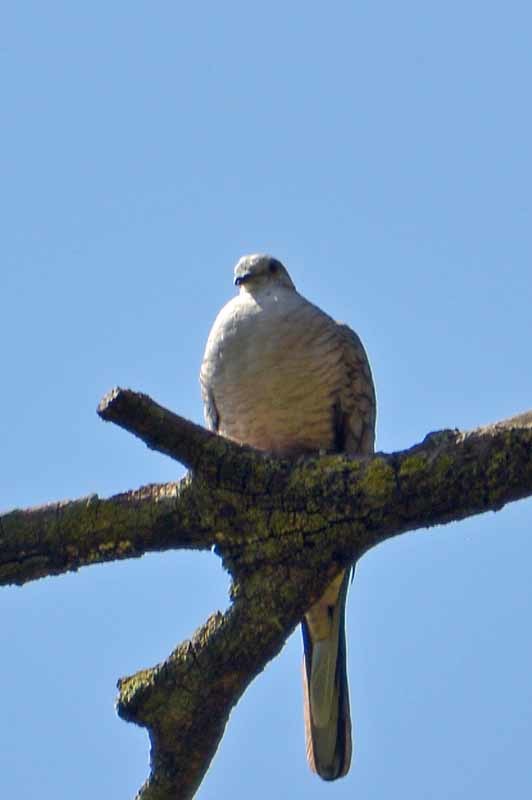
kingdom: Animalia
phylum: Chordata
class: Aves
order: Columbiformes
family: Columbidae
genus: Columbina
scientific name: Columbina inca
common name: Inca dove
